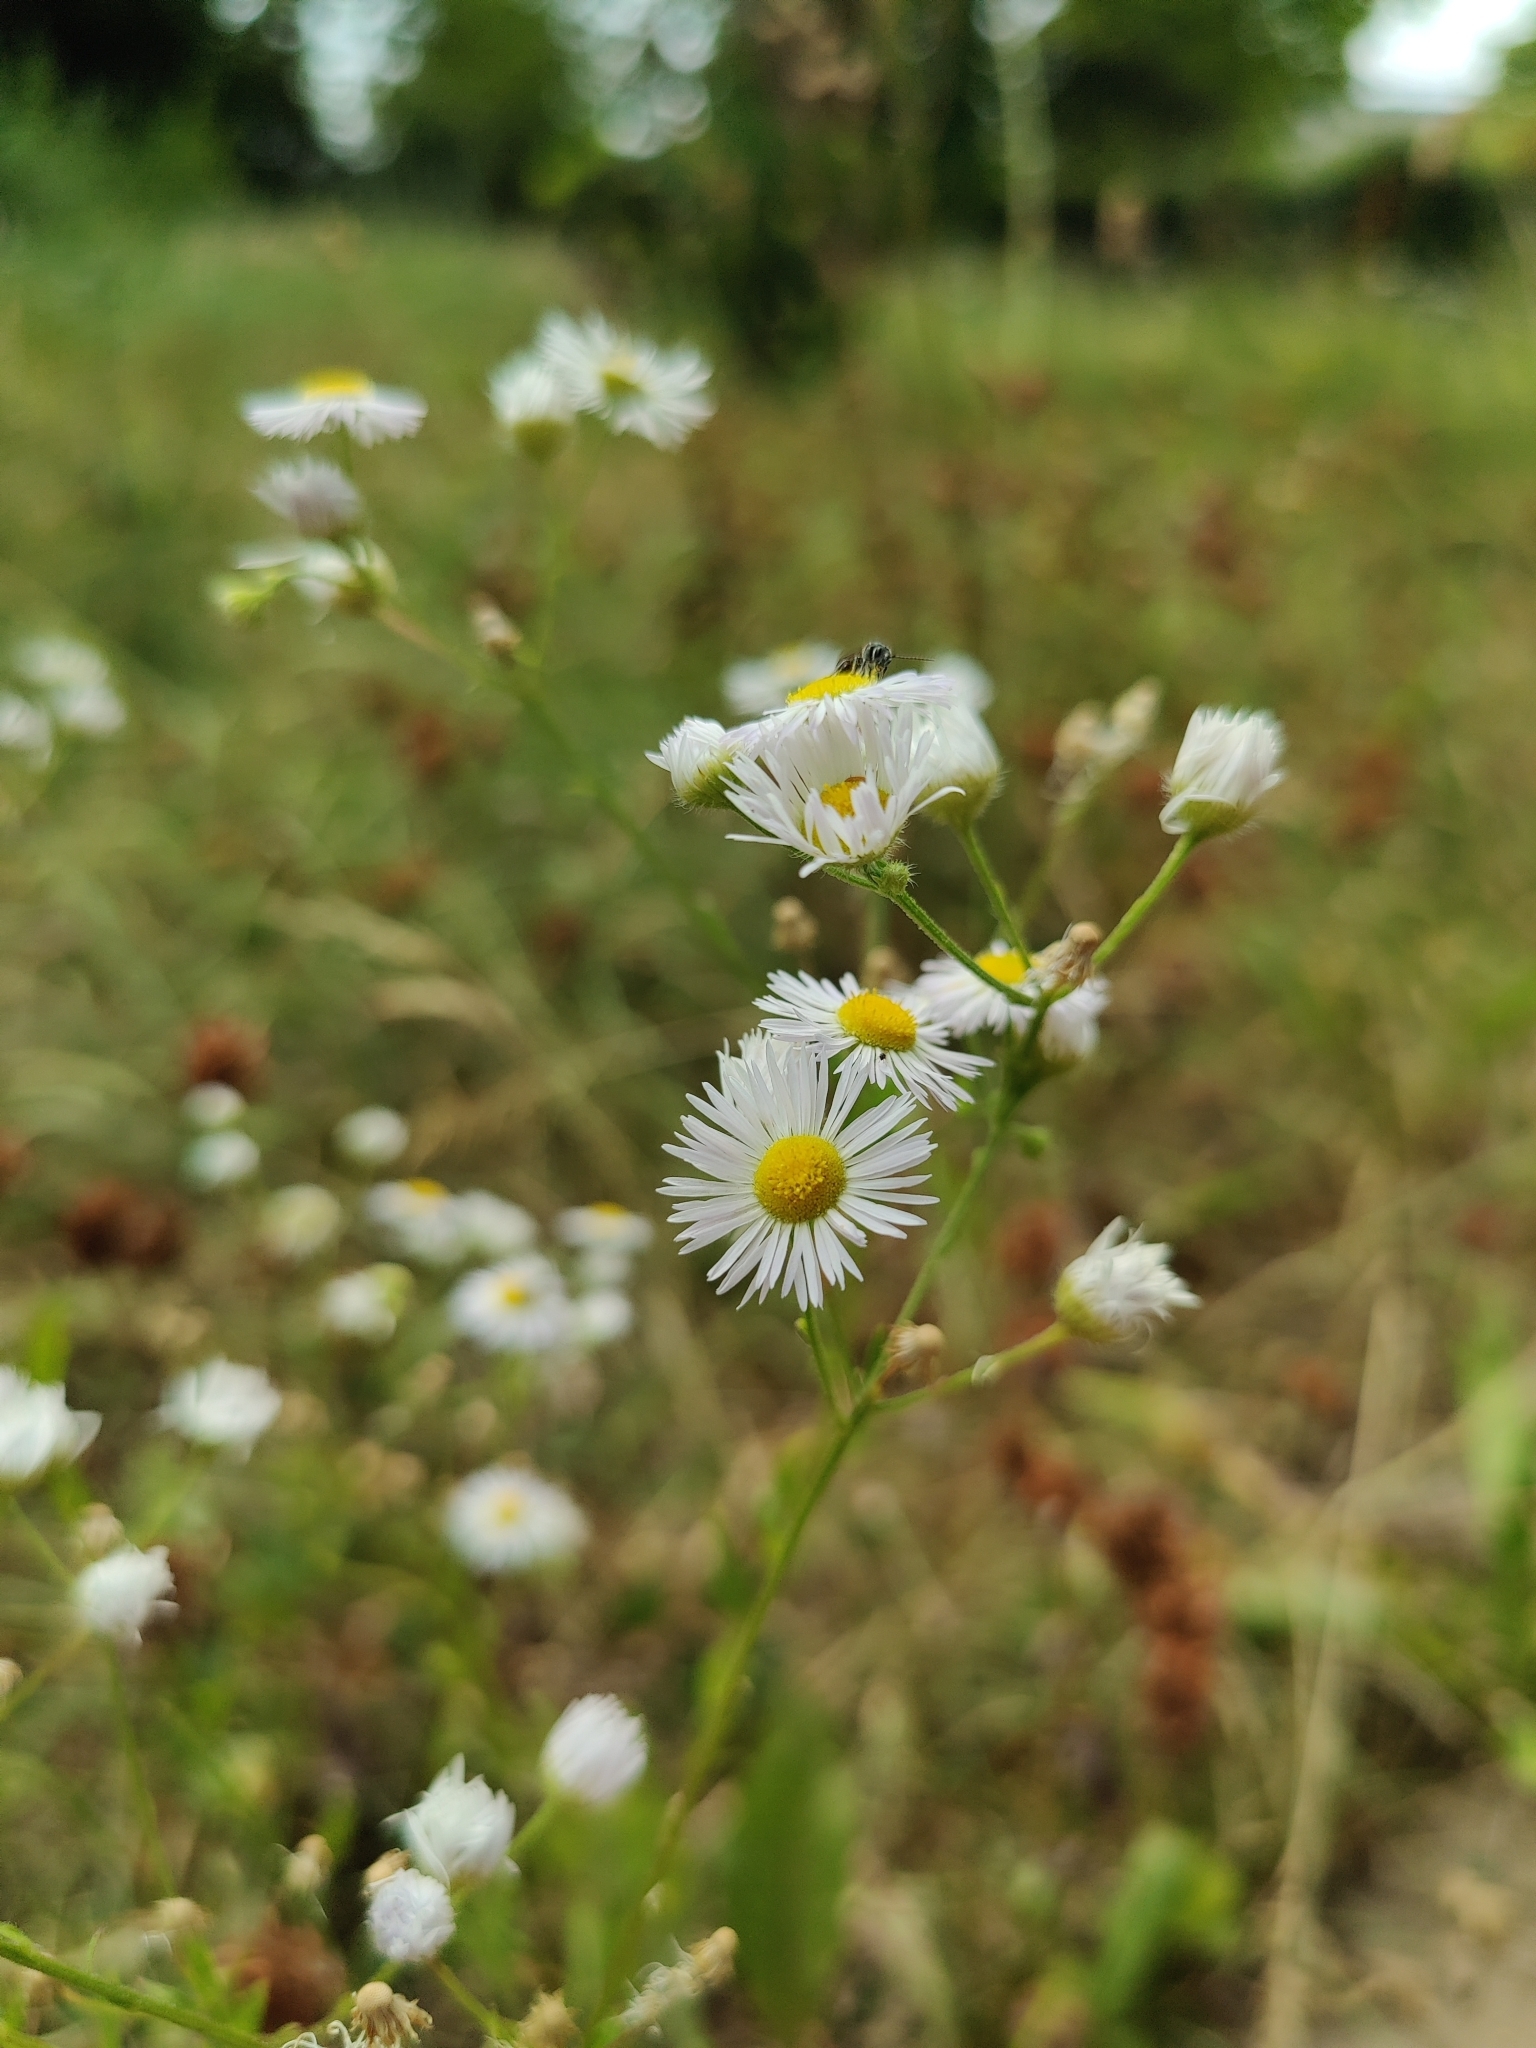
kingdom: Plantae
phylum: Tracheophyta
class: Magnoliopsida
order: Asterales
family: Asteraceae
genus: Erigeron
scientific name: Erigeron annuus
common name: Tall fleabane
